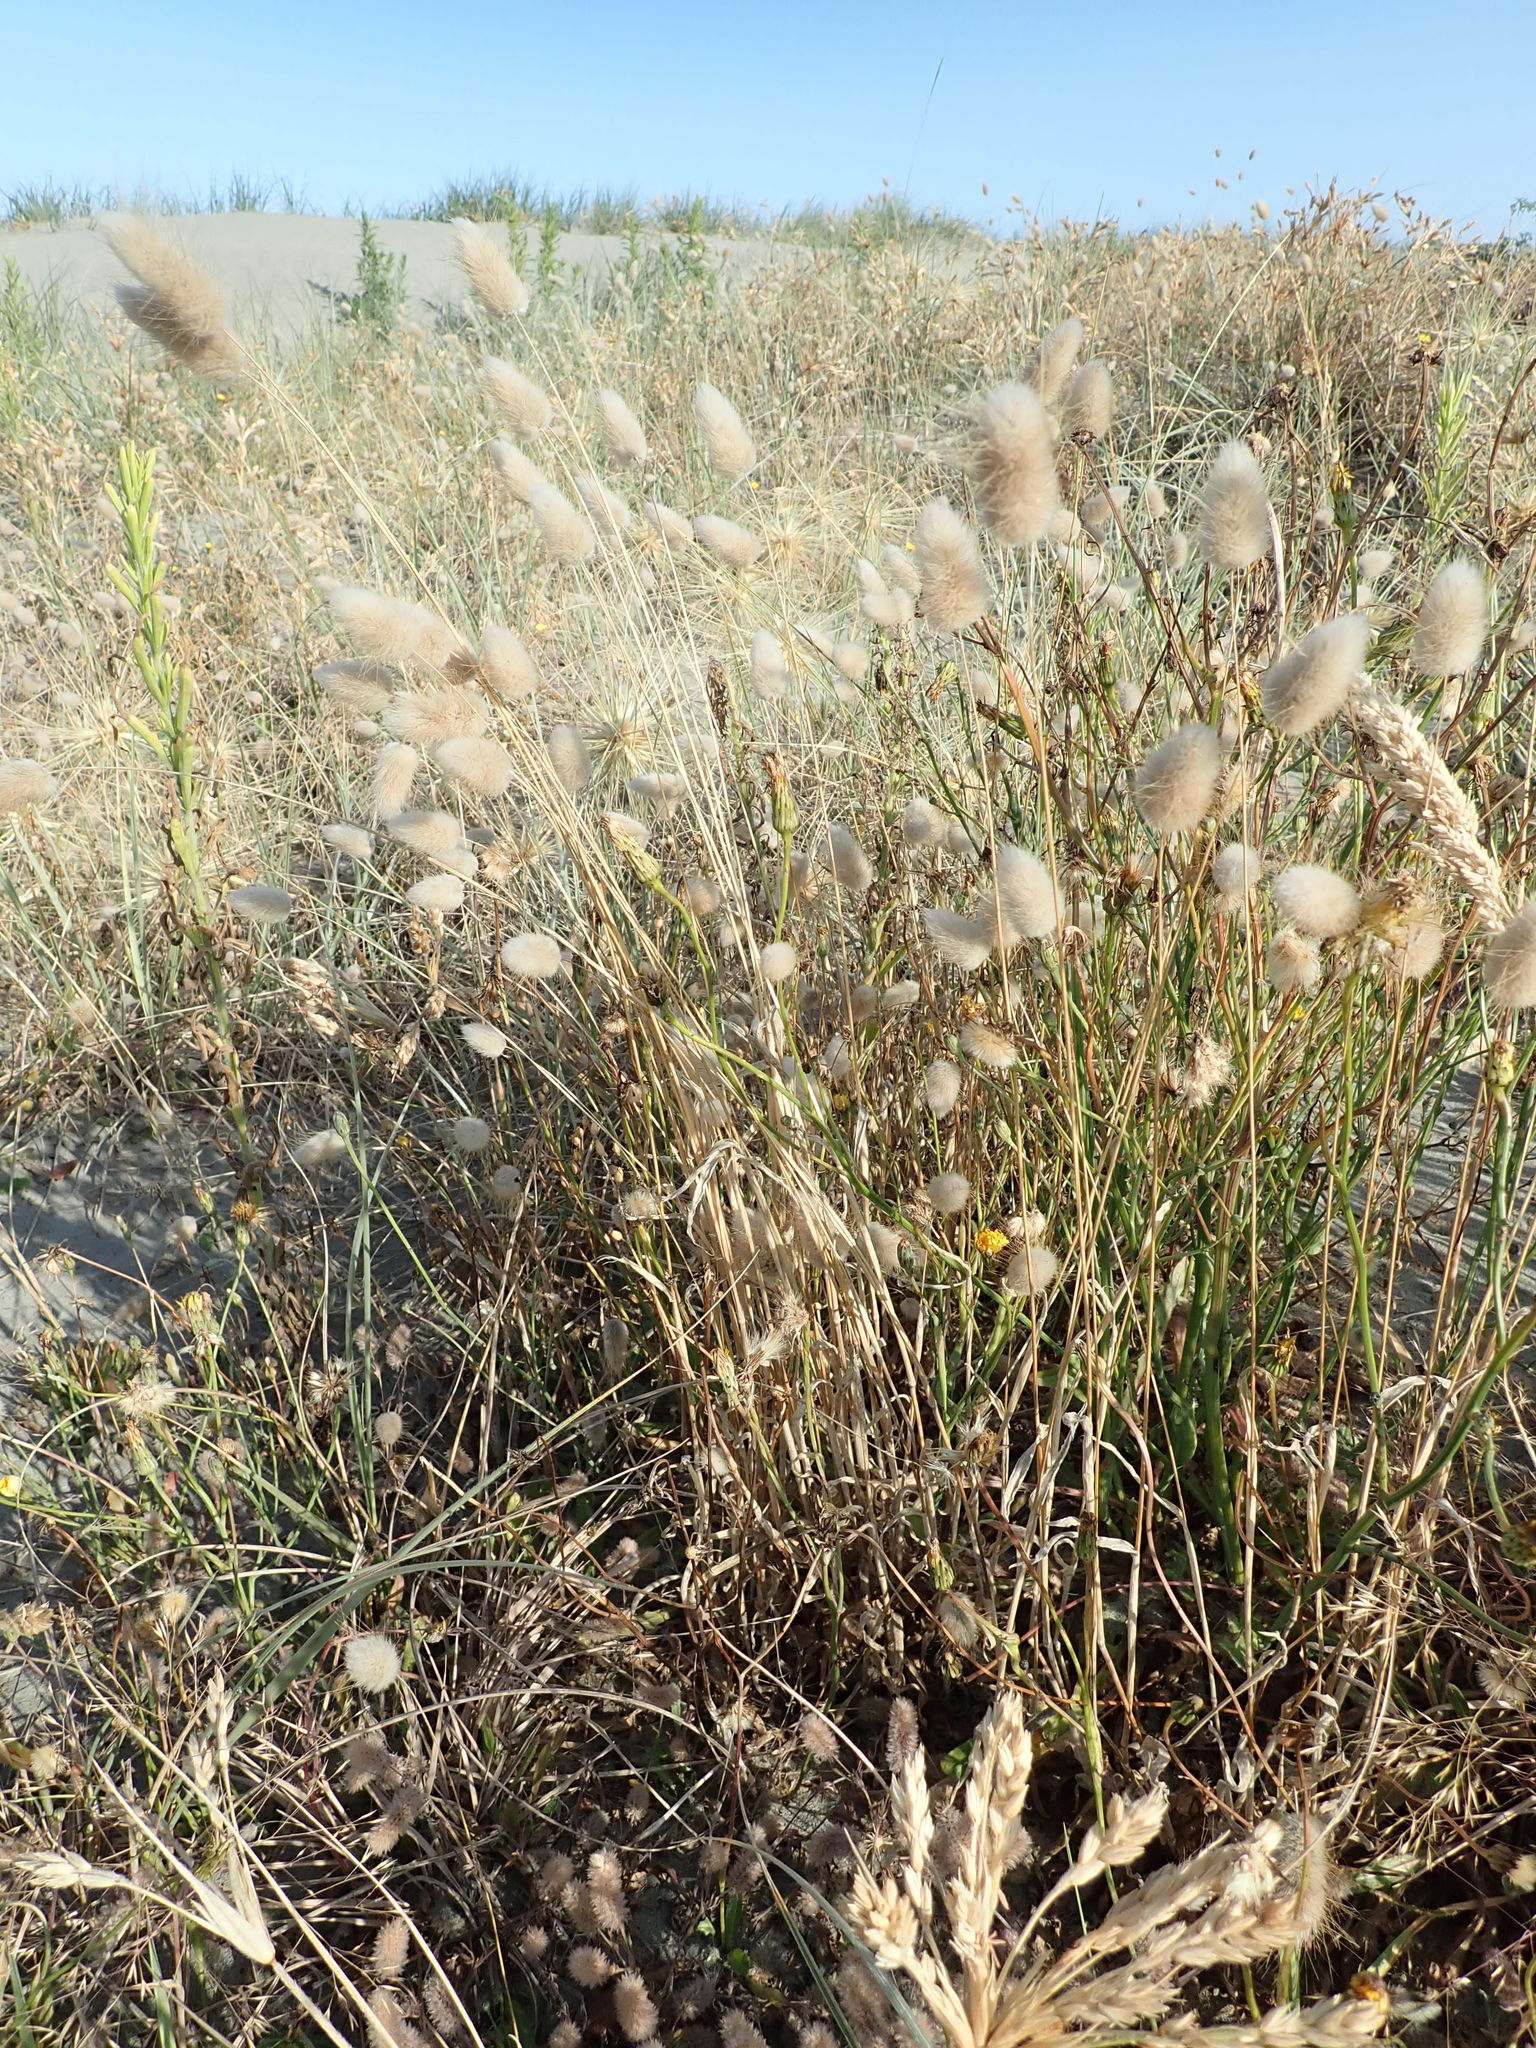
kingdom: Plantae
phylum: Tracheophyta
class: Liliopsida
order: Poales
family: Poaceae
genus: Lagurus
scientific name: Lagurus ovatus
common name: Hare's-tail
